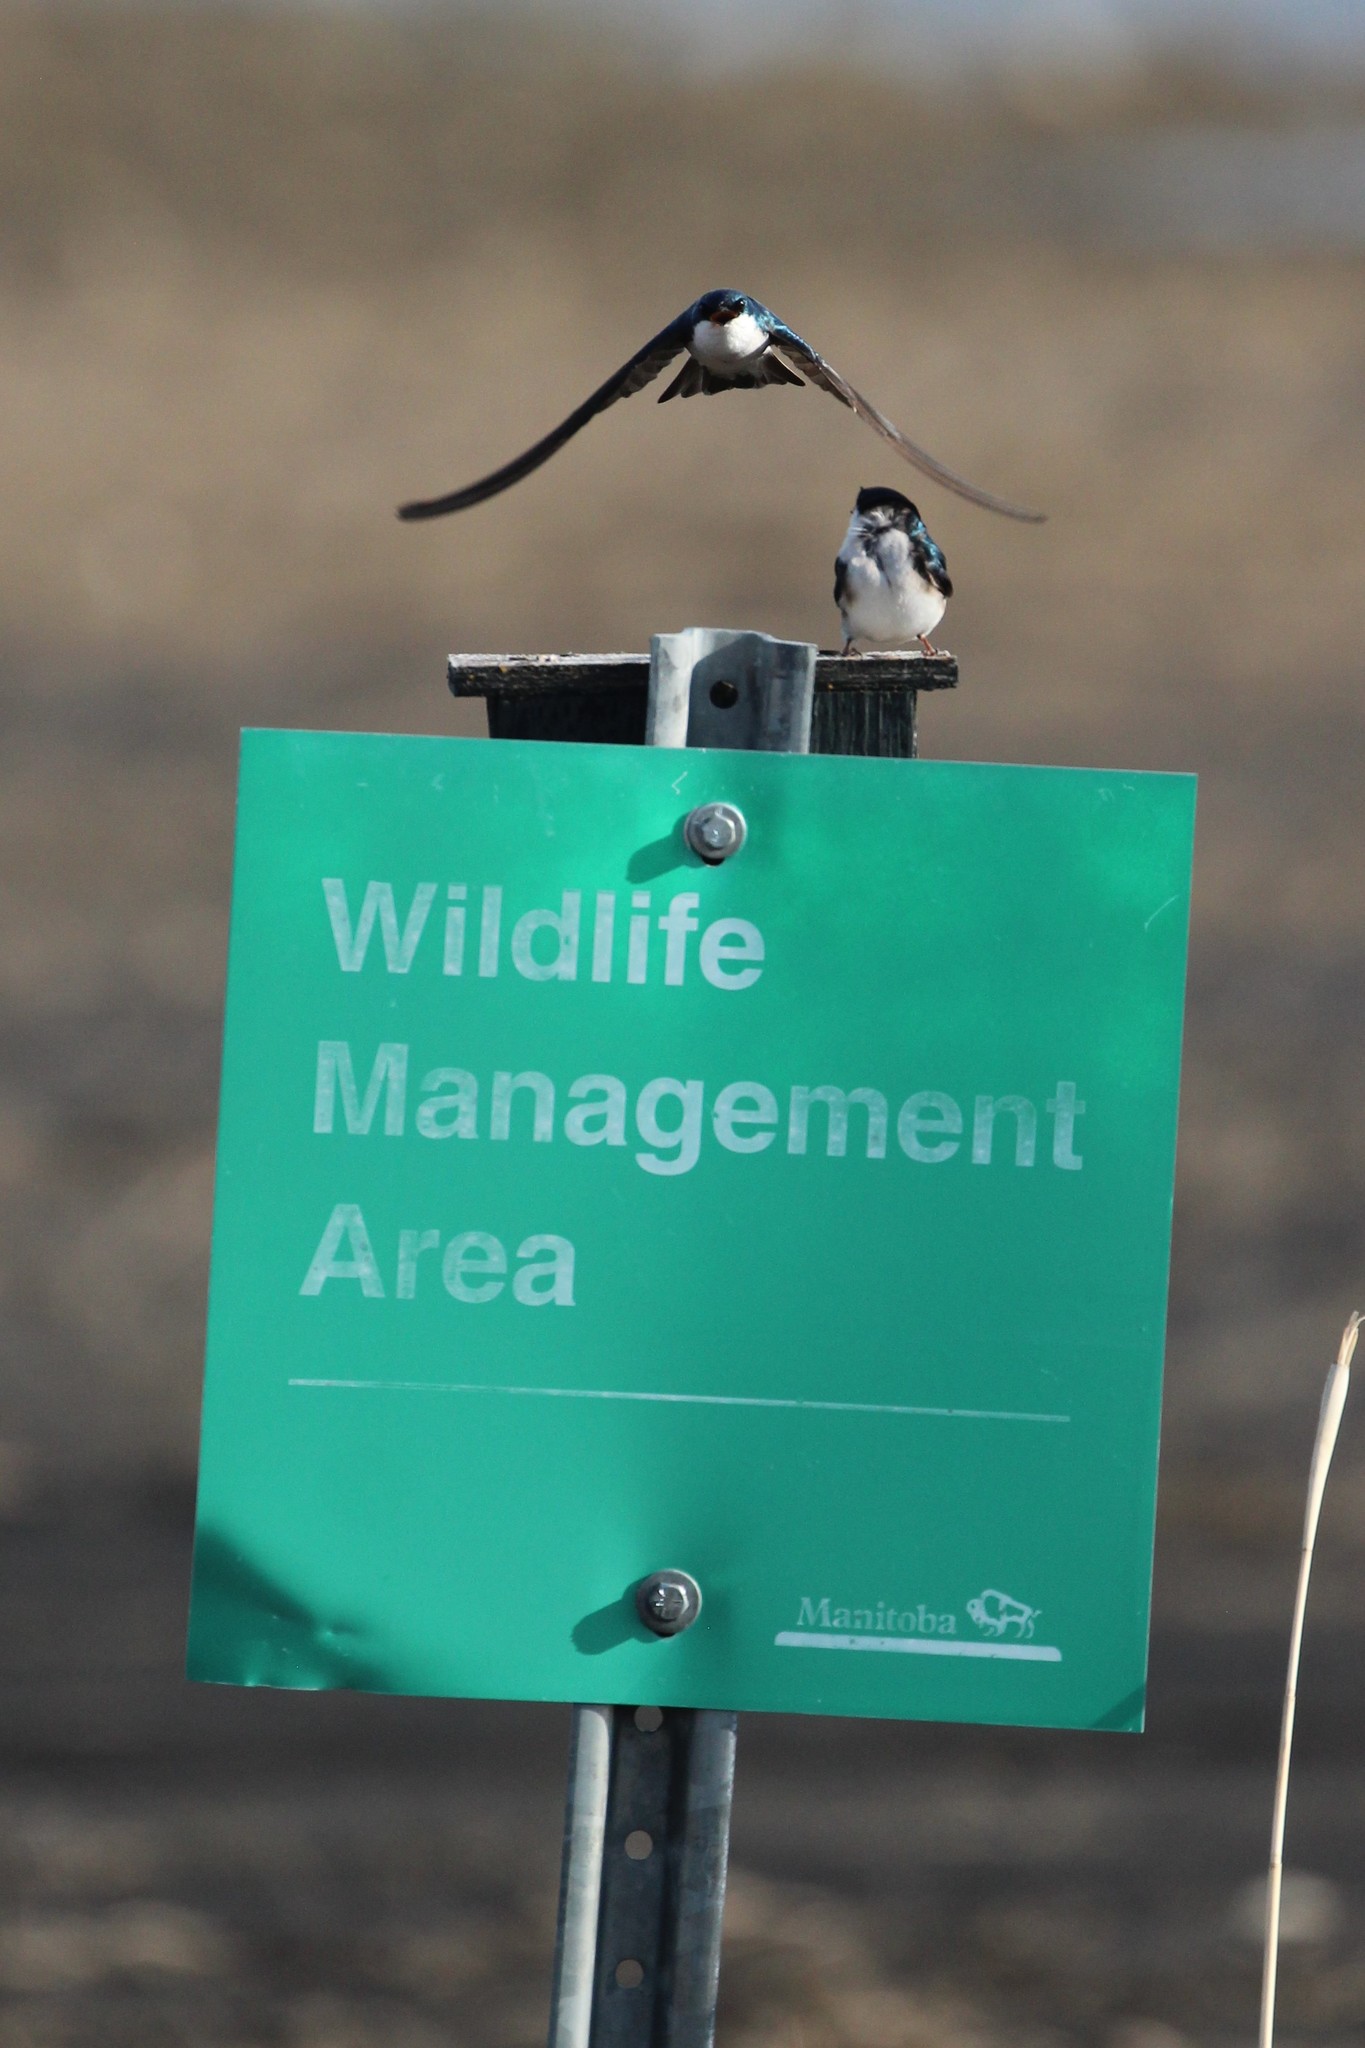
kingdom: Animalia
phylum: Chordata
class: Aves
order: Passeriformes
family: Hirundinidae
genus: Tachycineta
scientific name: Tachycineta bicolor
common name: Tree swallow
